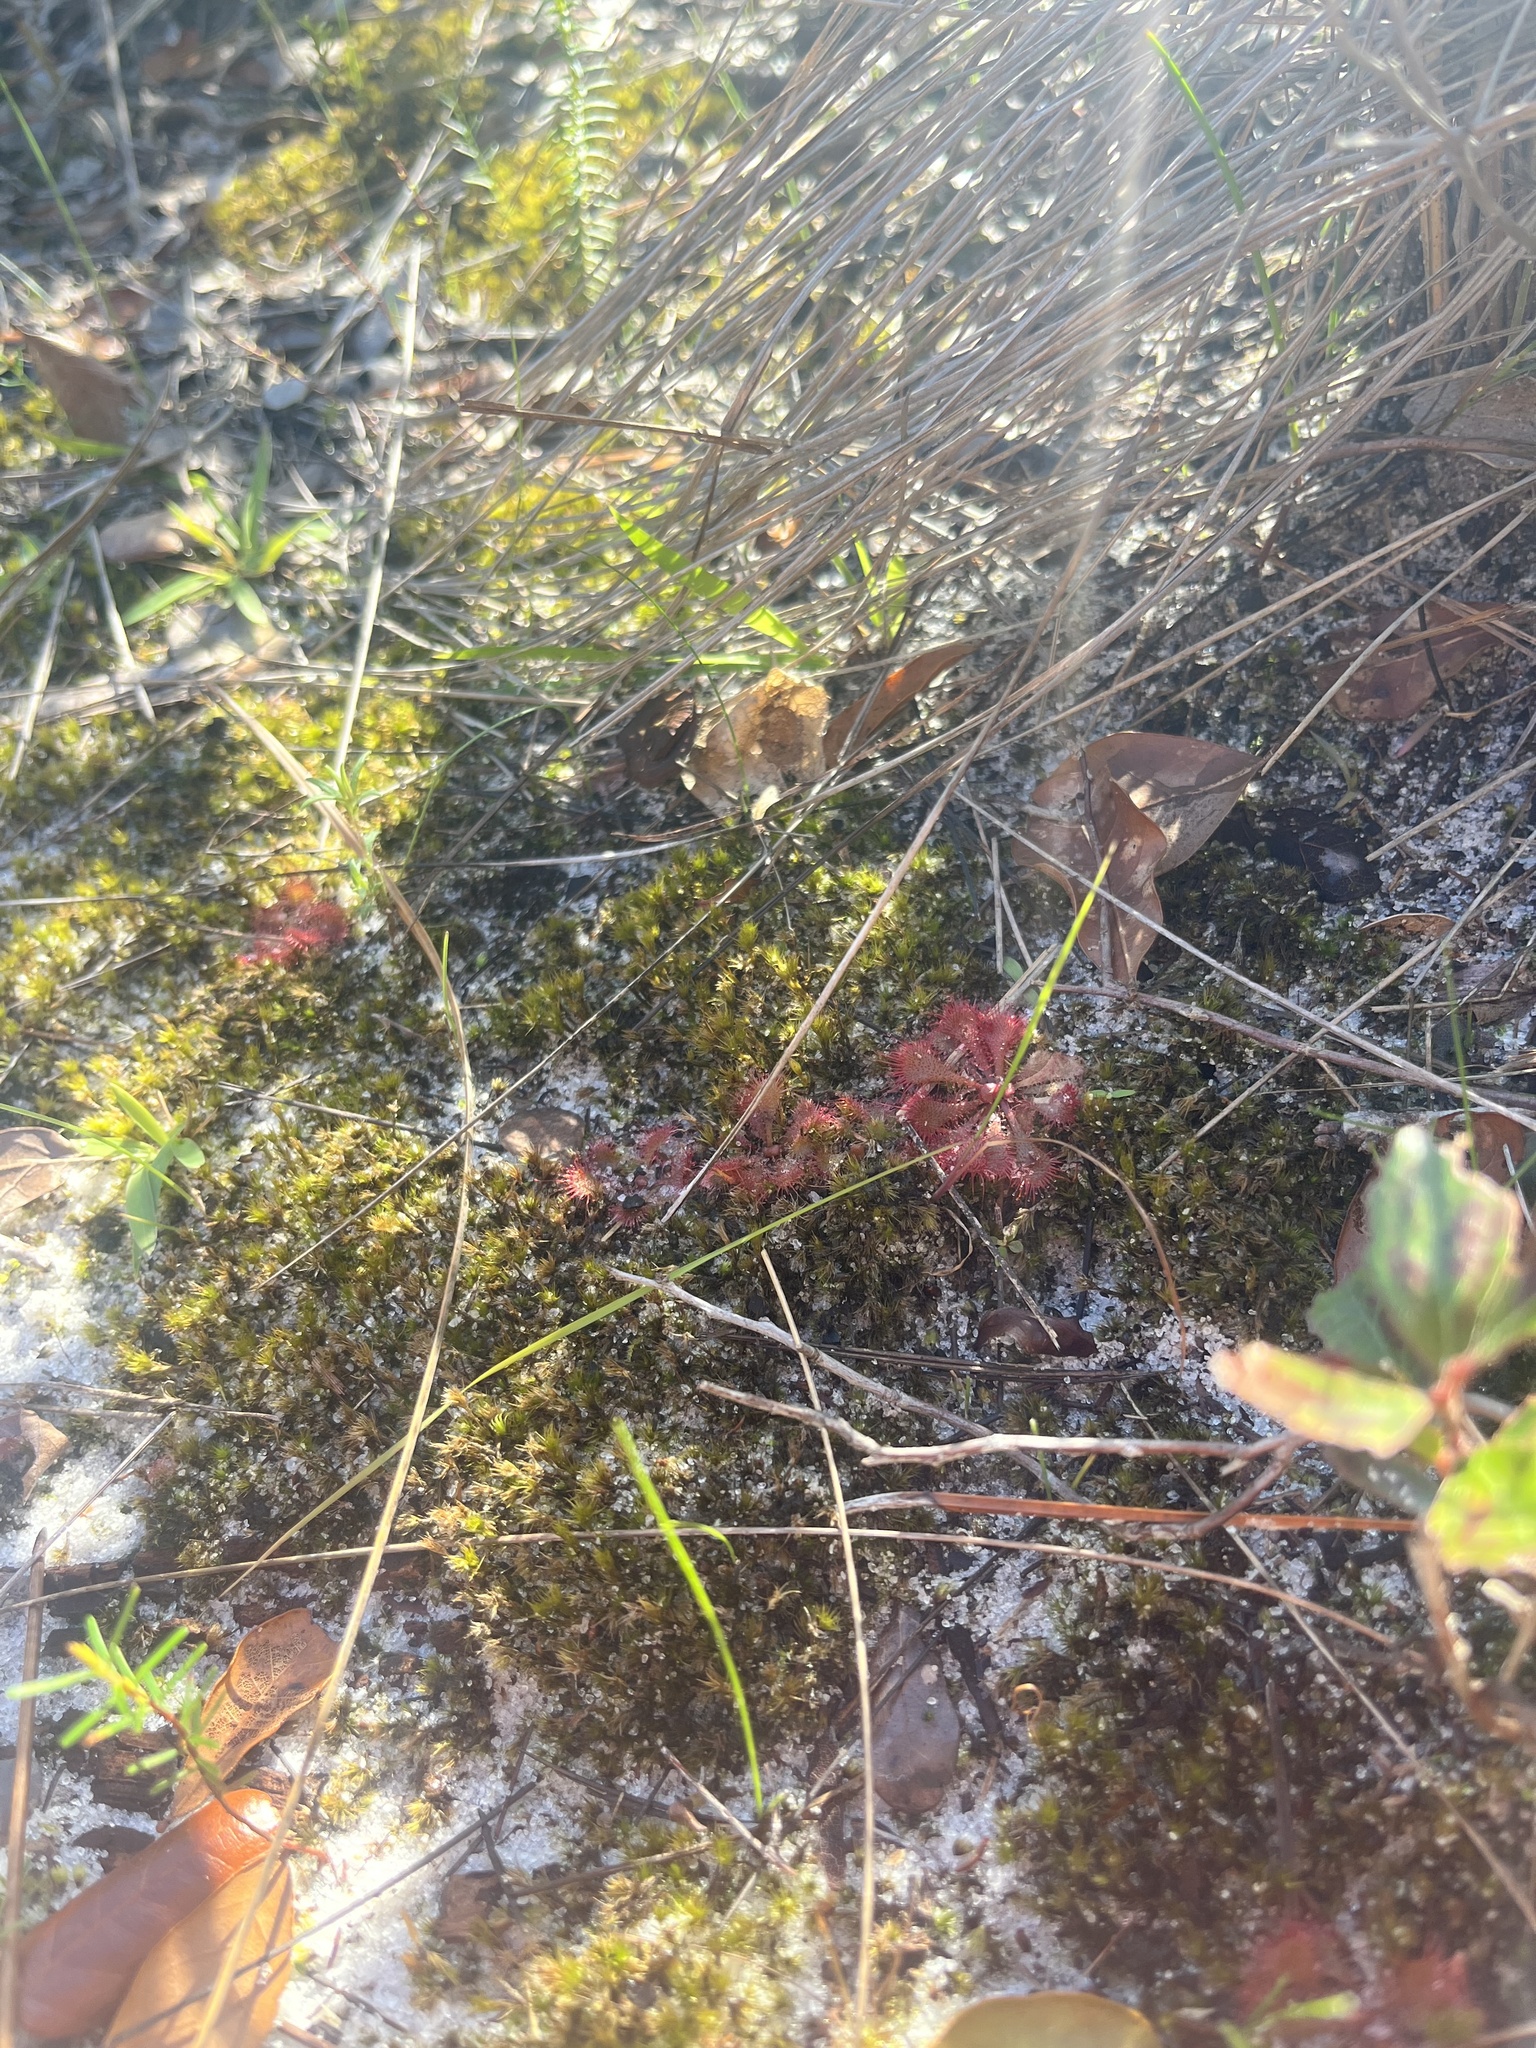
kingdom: Plantae
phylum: Tracheophyta
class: Magnoliopsida
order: Caryophyllales
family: Droseraceae
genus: Drosera
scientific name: Drosera brevifolia
